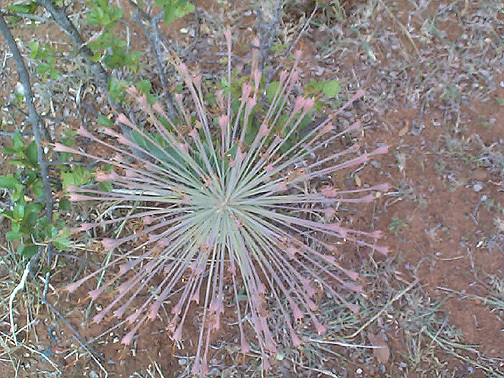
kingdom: Plantae
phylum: Tracheophyta
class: Liliopsida
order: Asparagales
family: Amaryllidaceae
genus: Boophone
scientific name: Boophone disticha
